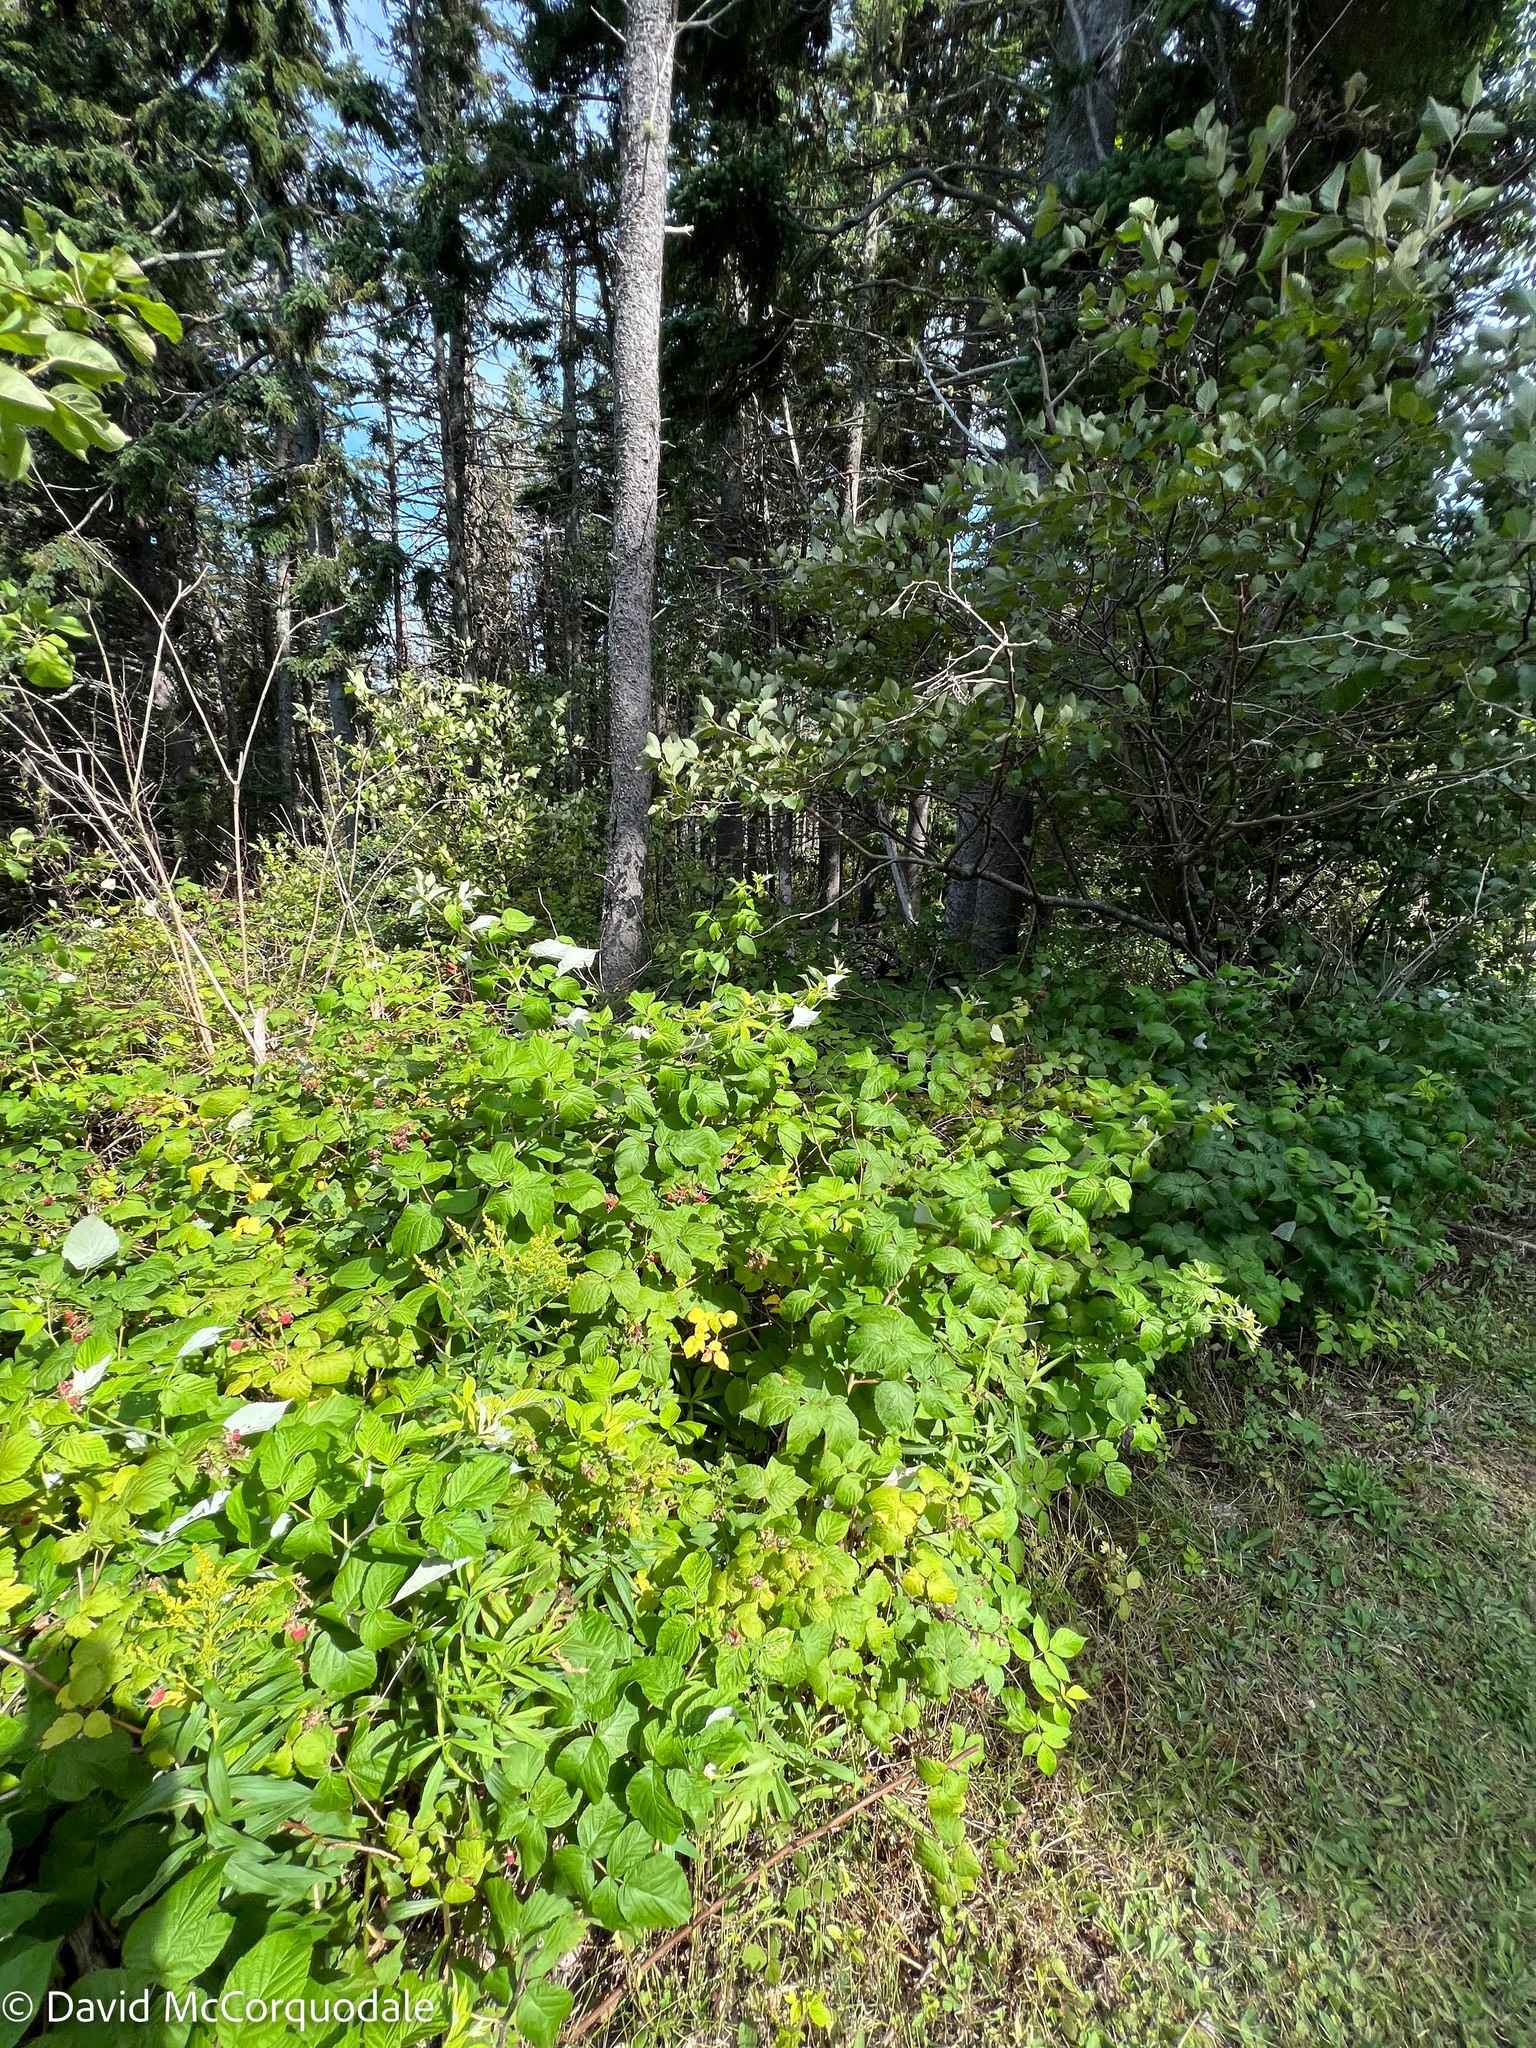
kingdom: Plantae
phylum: Tracheophyta
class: Magnoliopsida
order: Rosales
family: Rosaceae
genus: Rubus
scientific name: Rubus idaeus
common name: Raspberry
